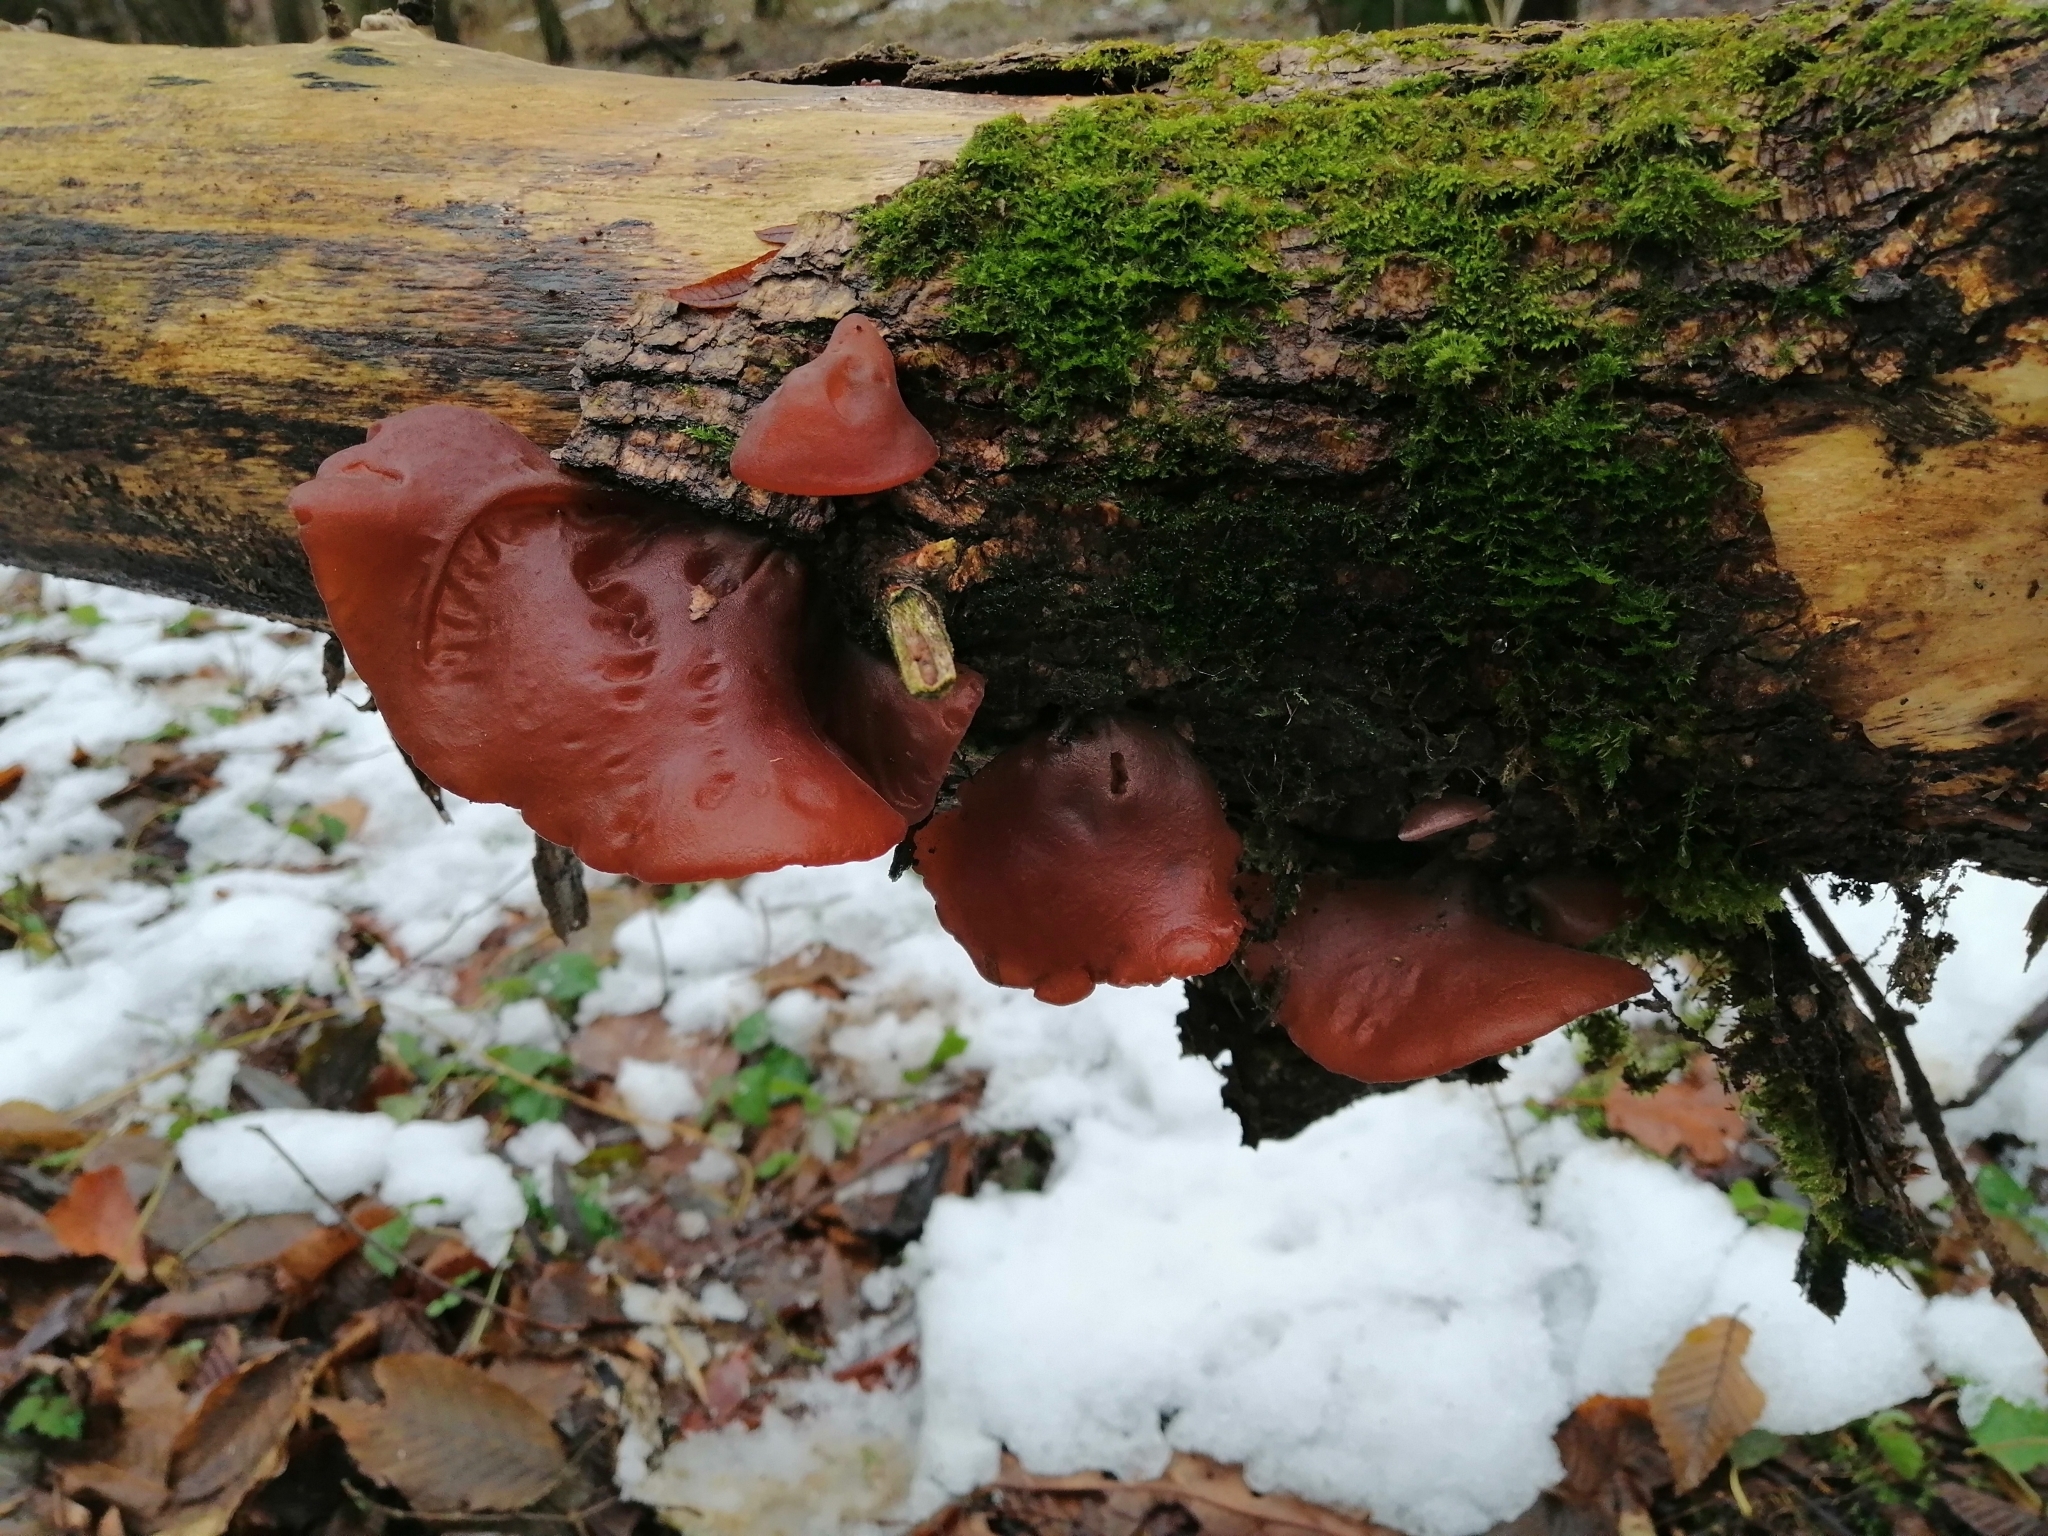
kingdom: Fungi
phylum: Basidiomycota
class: Agaricomycetes
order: Auriculariales
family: Auriculariaceae
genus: Auricularia
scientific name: Auricularia auricula-judae
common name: Jelly ear
